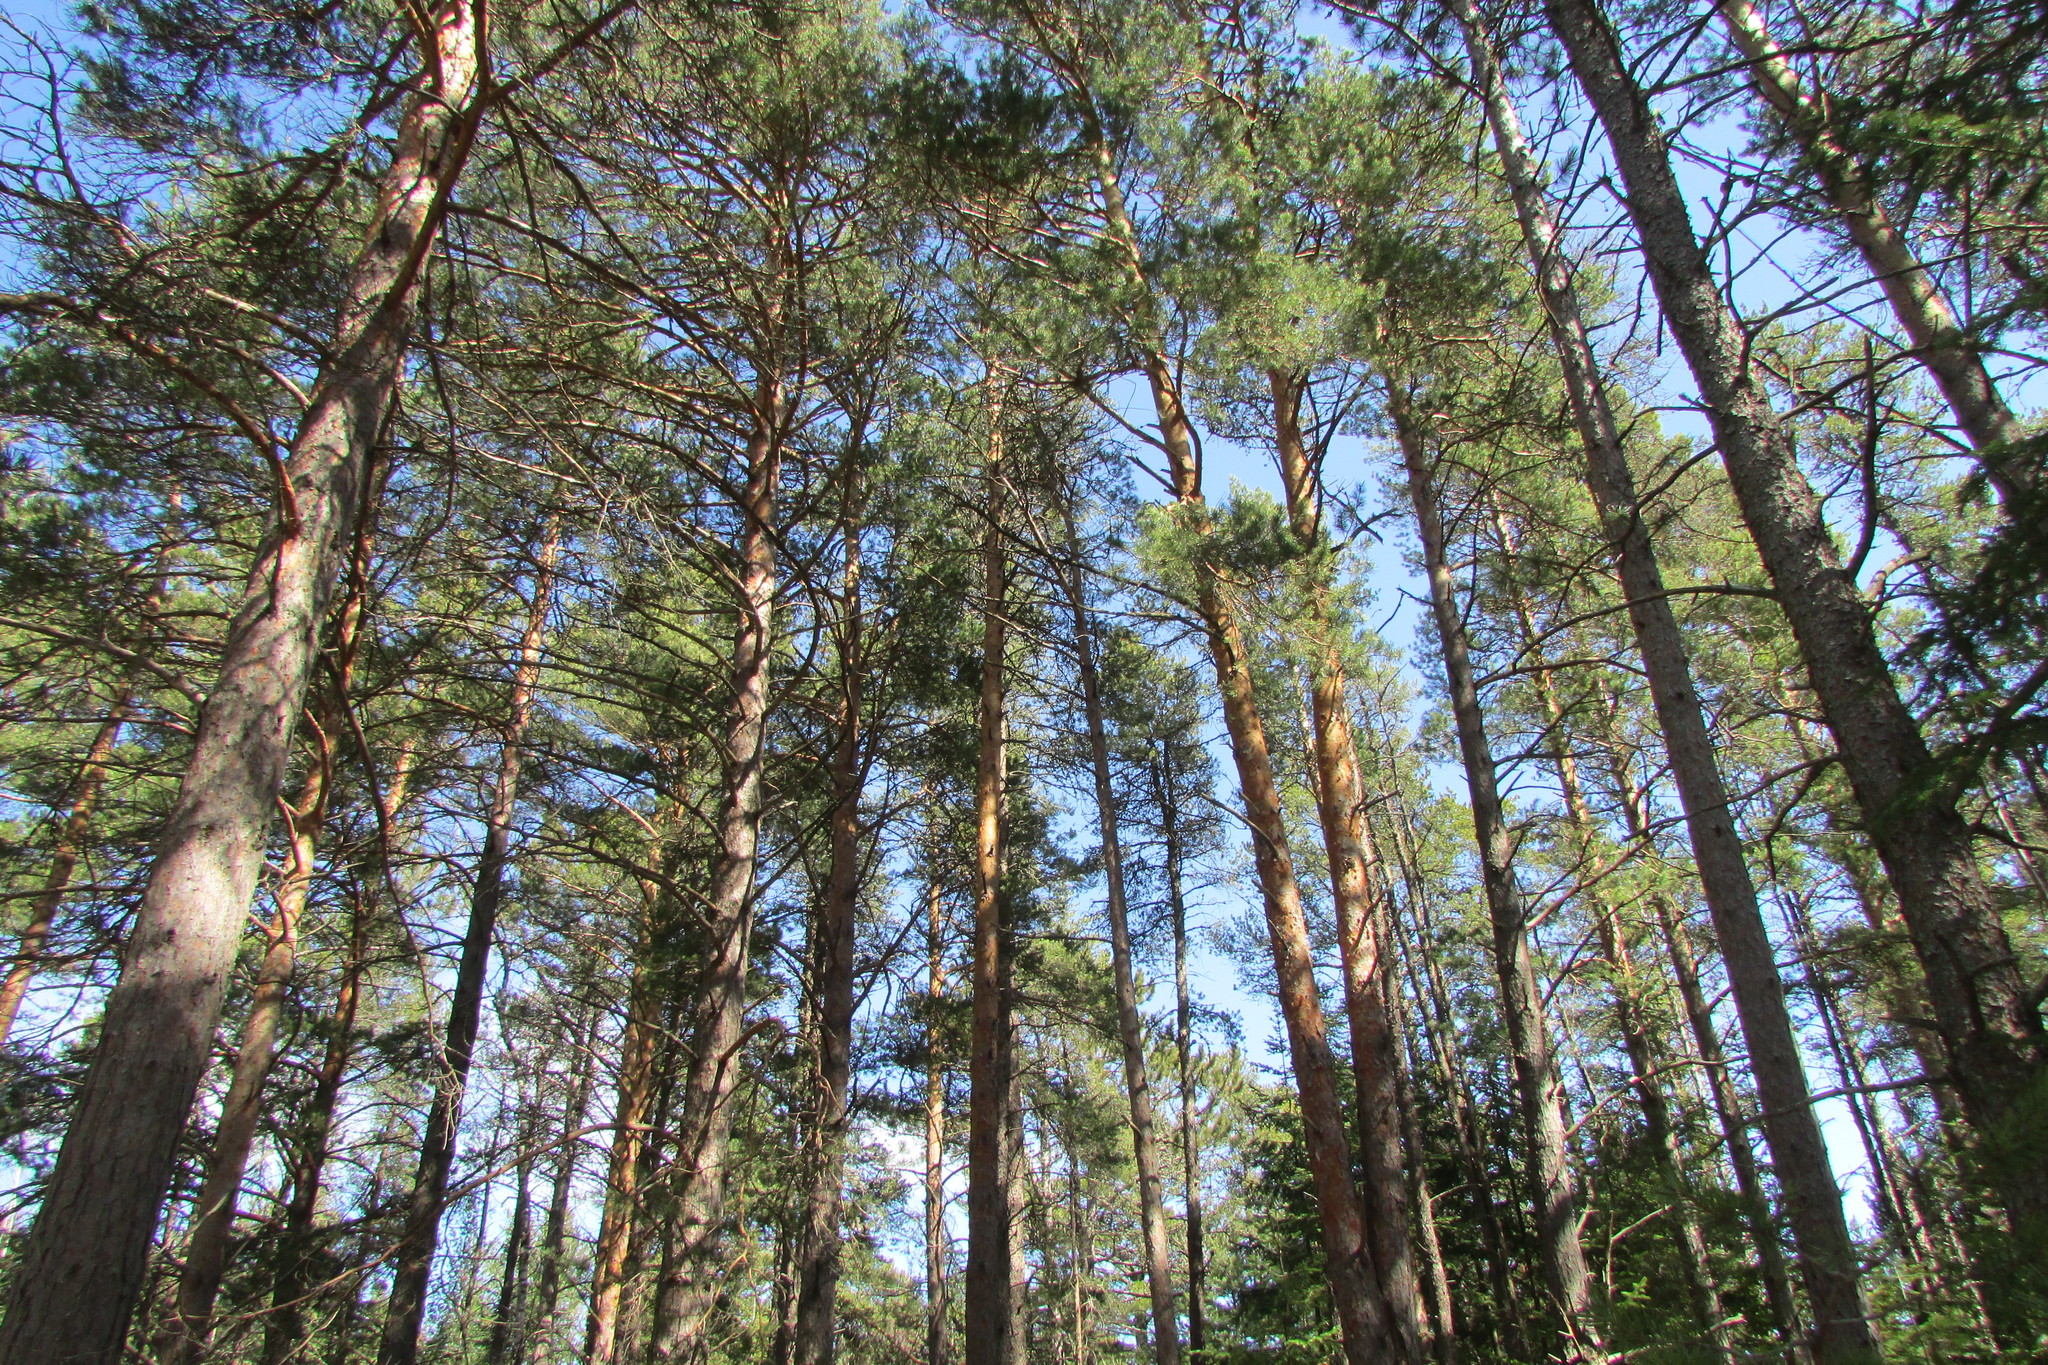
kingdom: Plantae
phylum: Tracheophyta
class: Pinopsida
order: Pinales
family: Pinaceae
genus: Pinus
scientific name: Pinus sylvestris
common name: Scots pine
